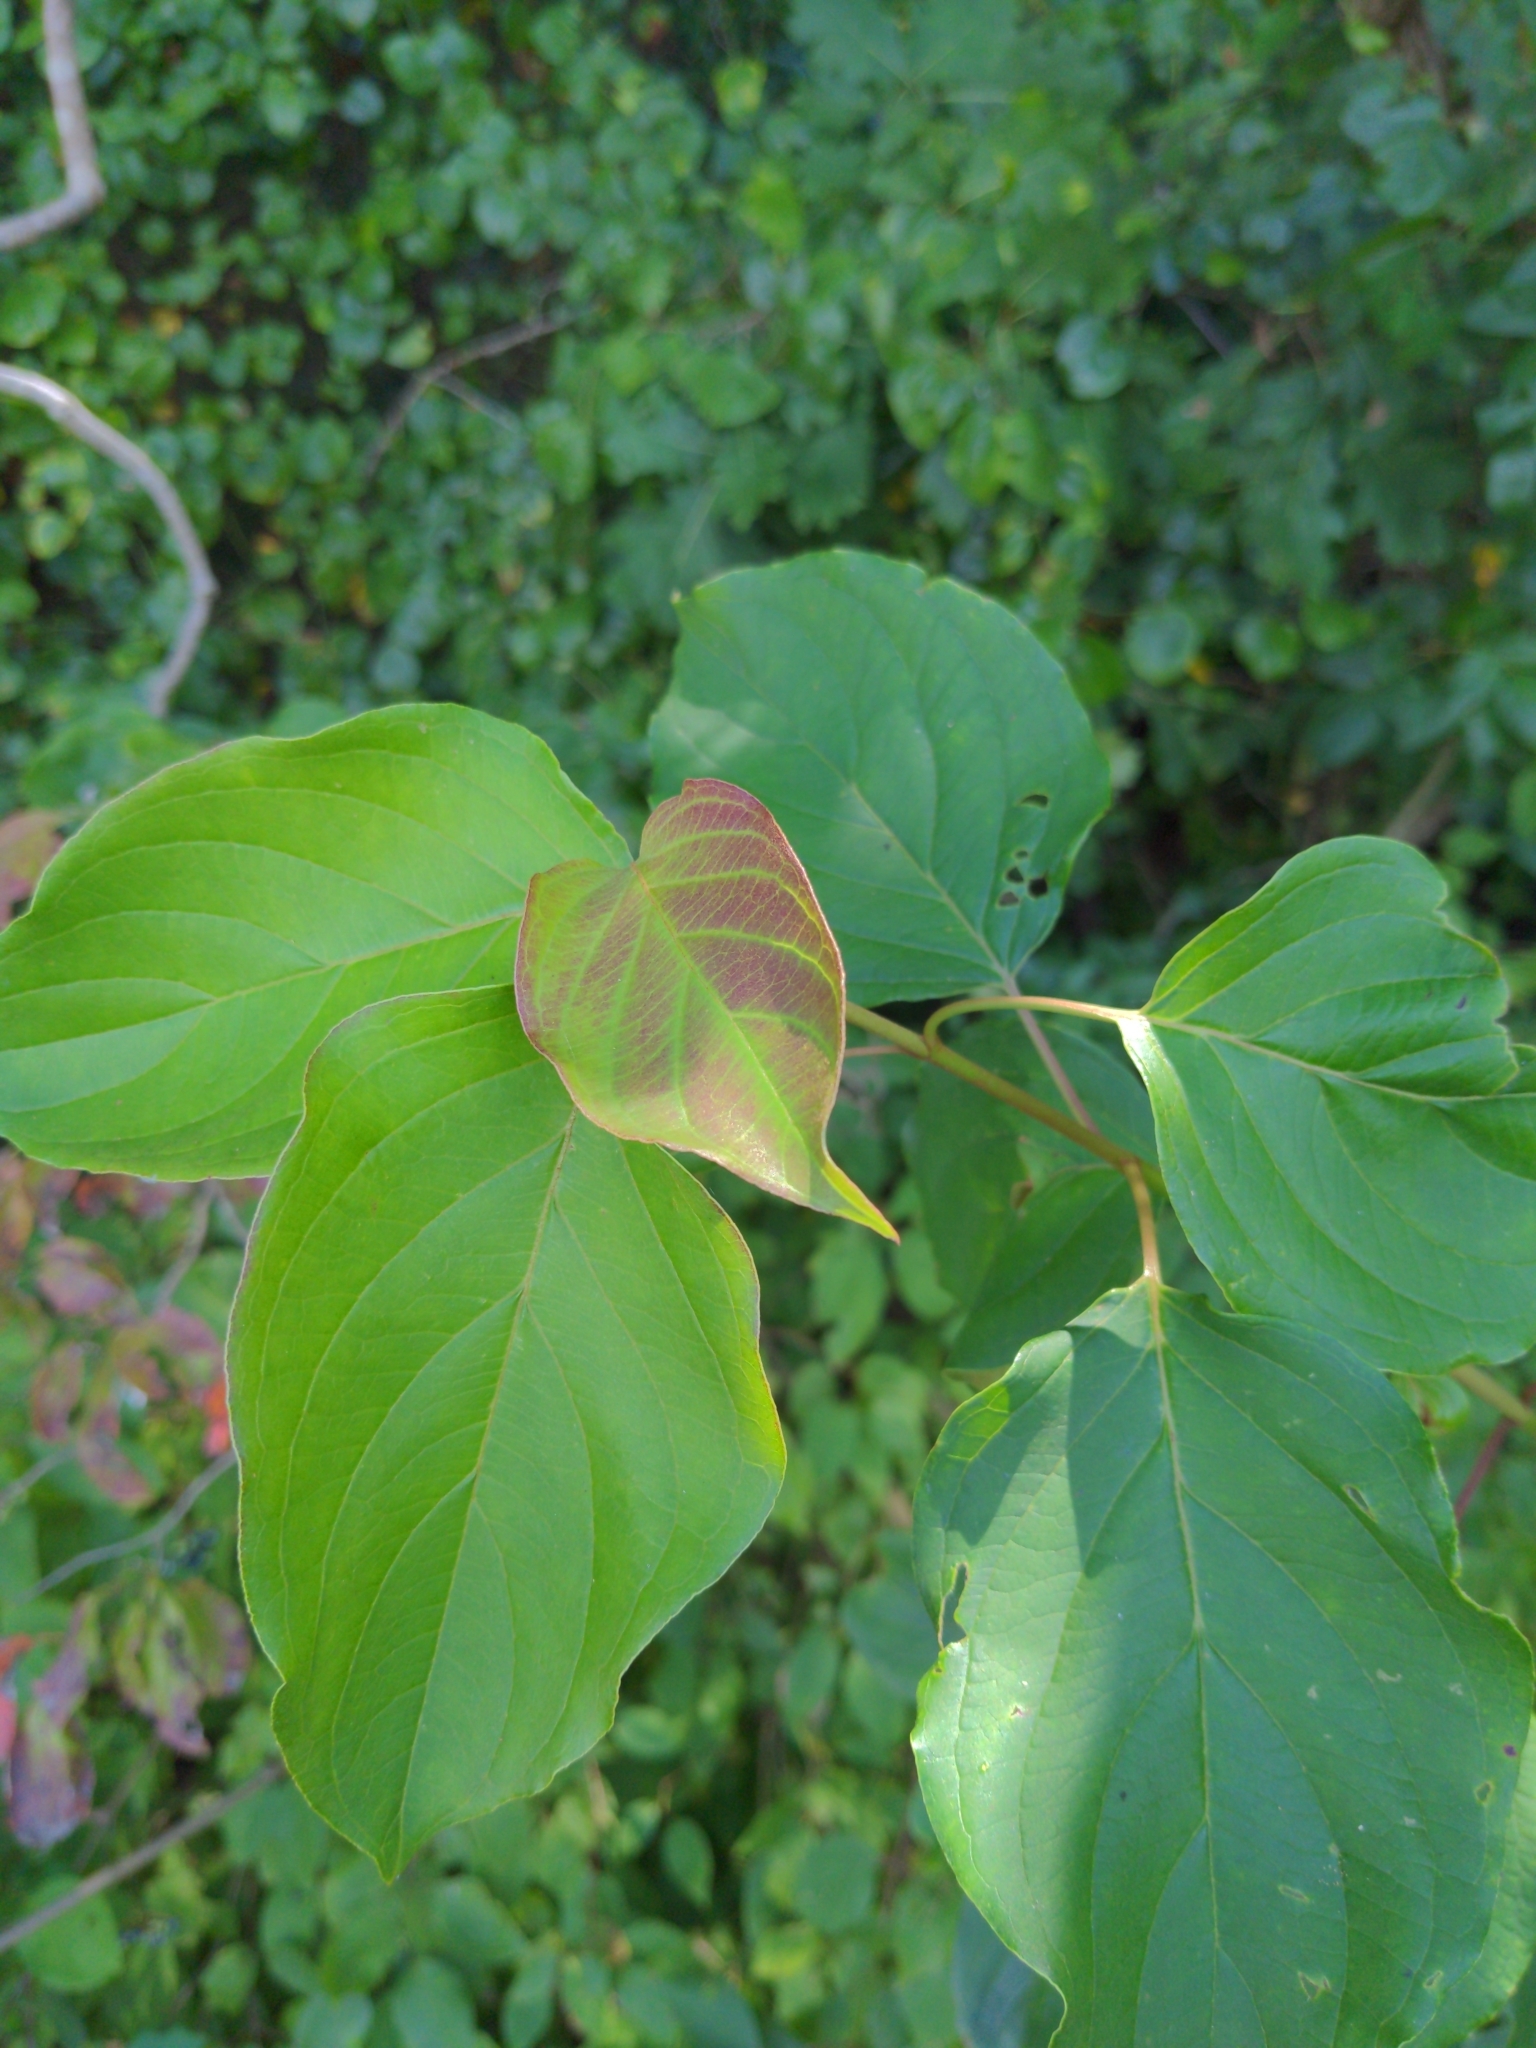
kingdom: Plantae
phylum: Tracheophyta
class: Magnoliopsida
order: Cornales
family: Cornaceae
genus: Cornus
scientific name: Cornus amomum
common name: Silky dogwood
